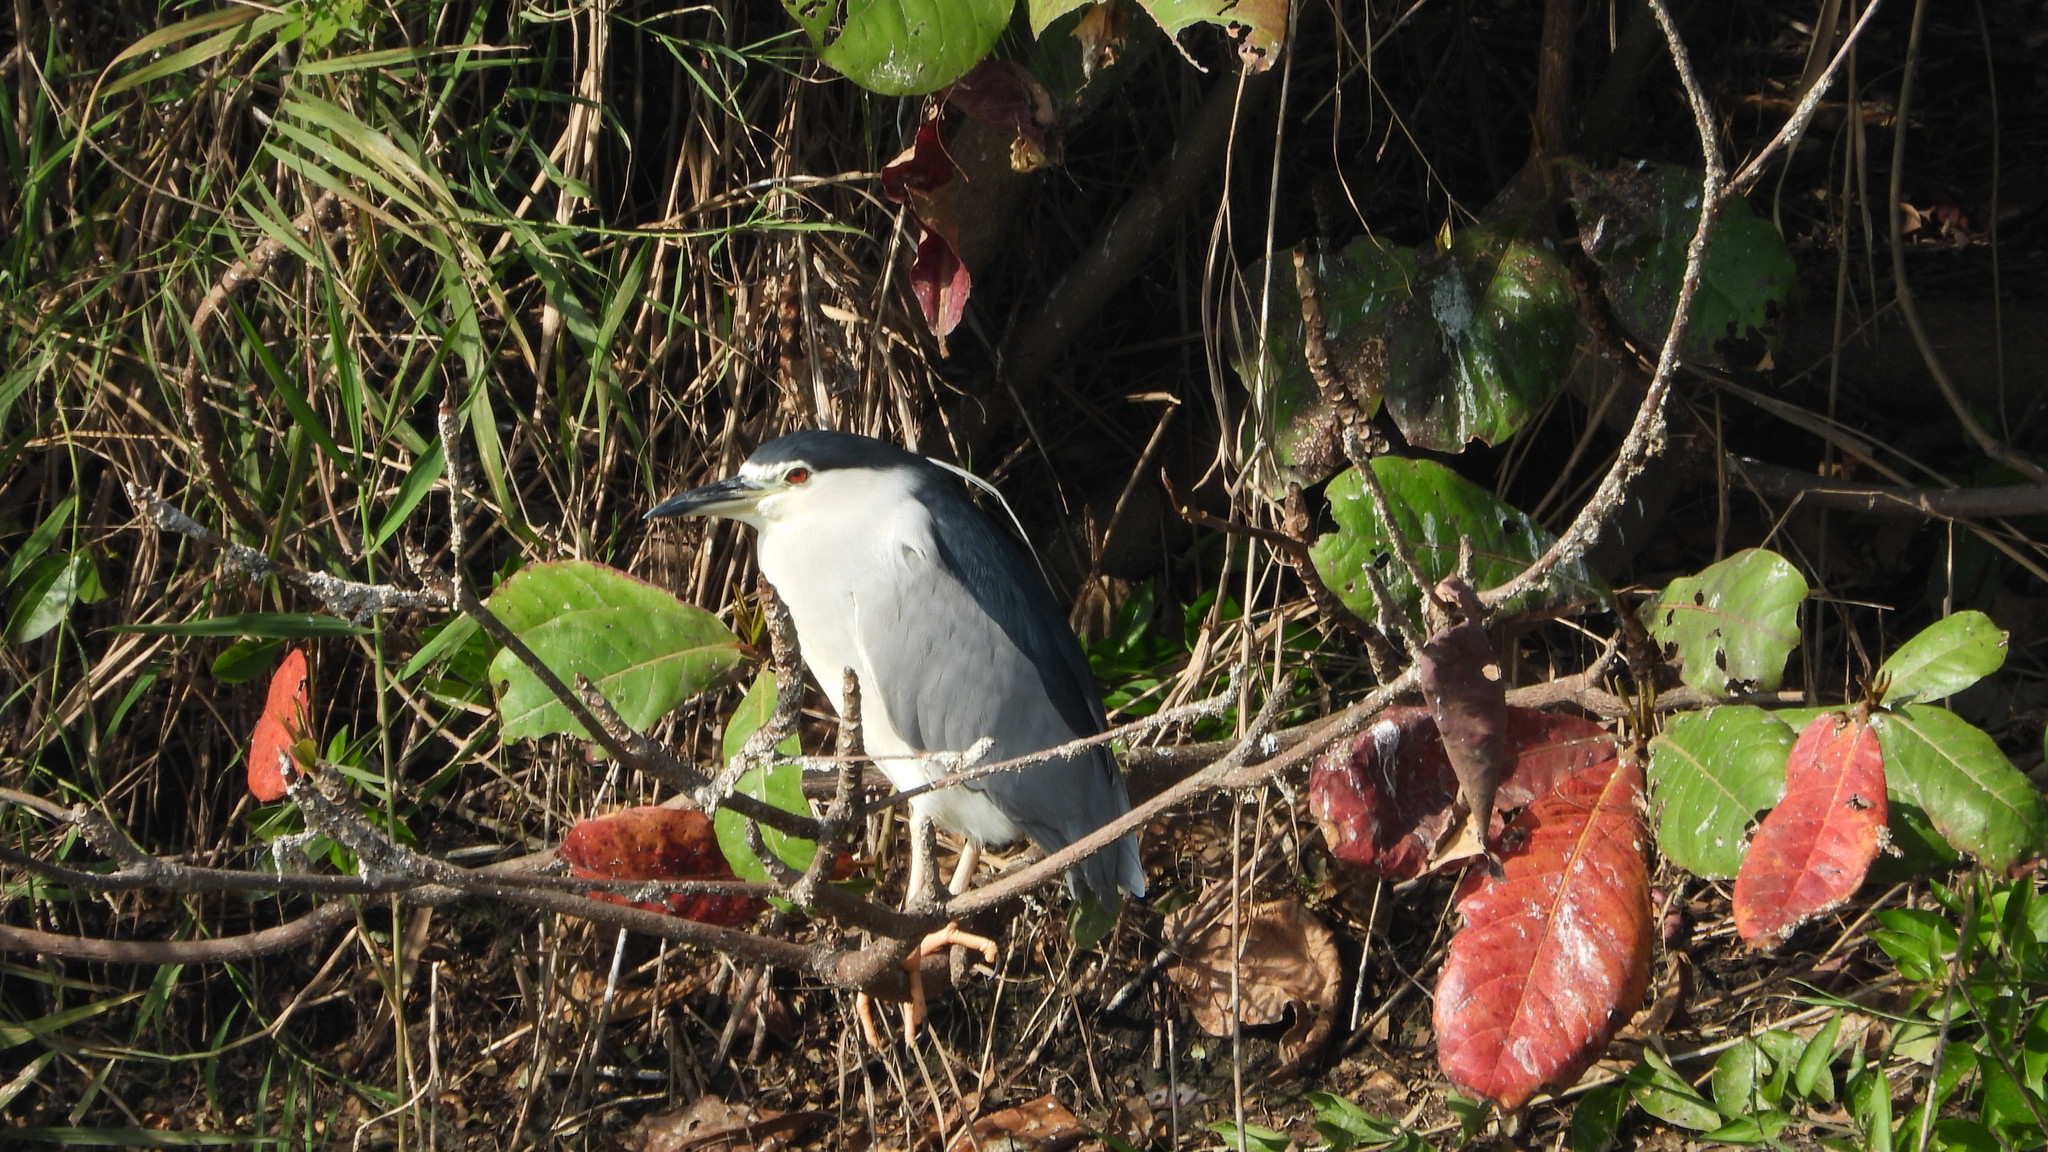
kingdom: Animalia
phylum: Chordata
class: Aves
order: Pelecaniformes
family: Ardeidae
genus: Nycticorax
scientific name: Nycticorax nycticorax
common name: Black-crowned night heron
